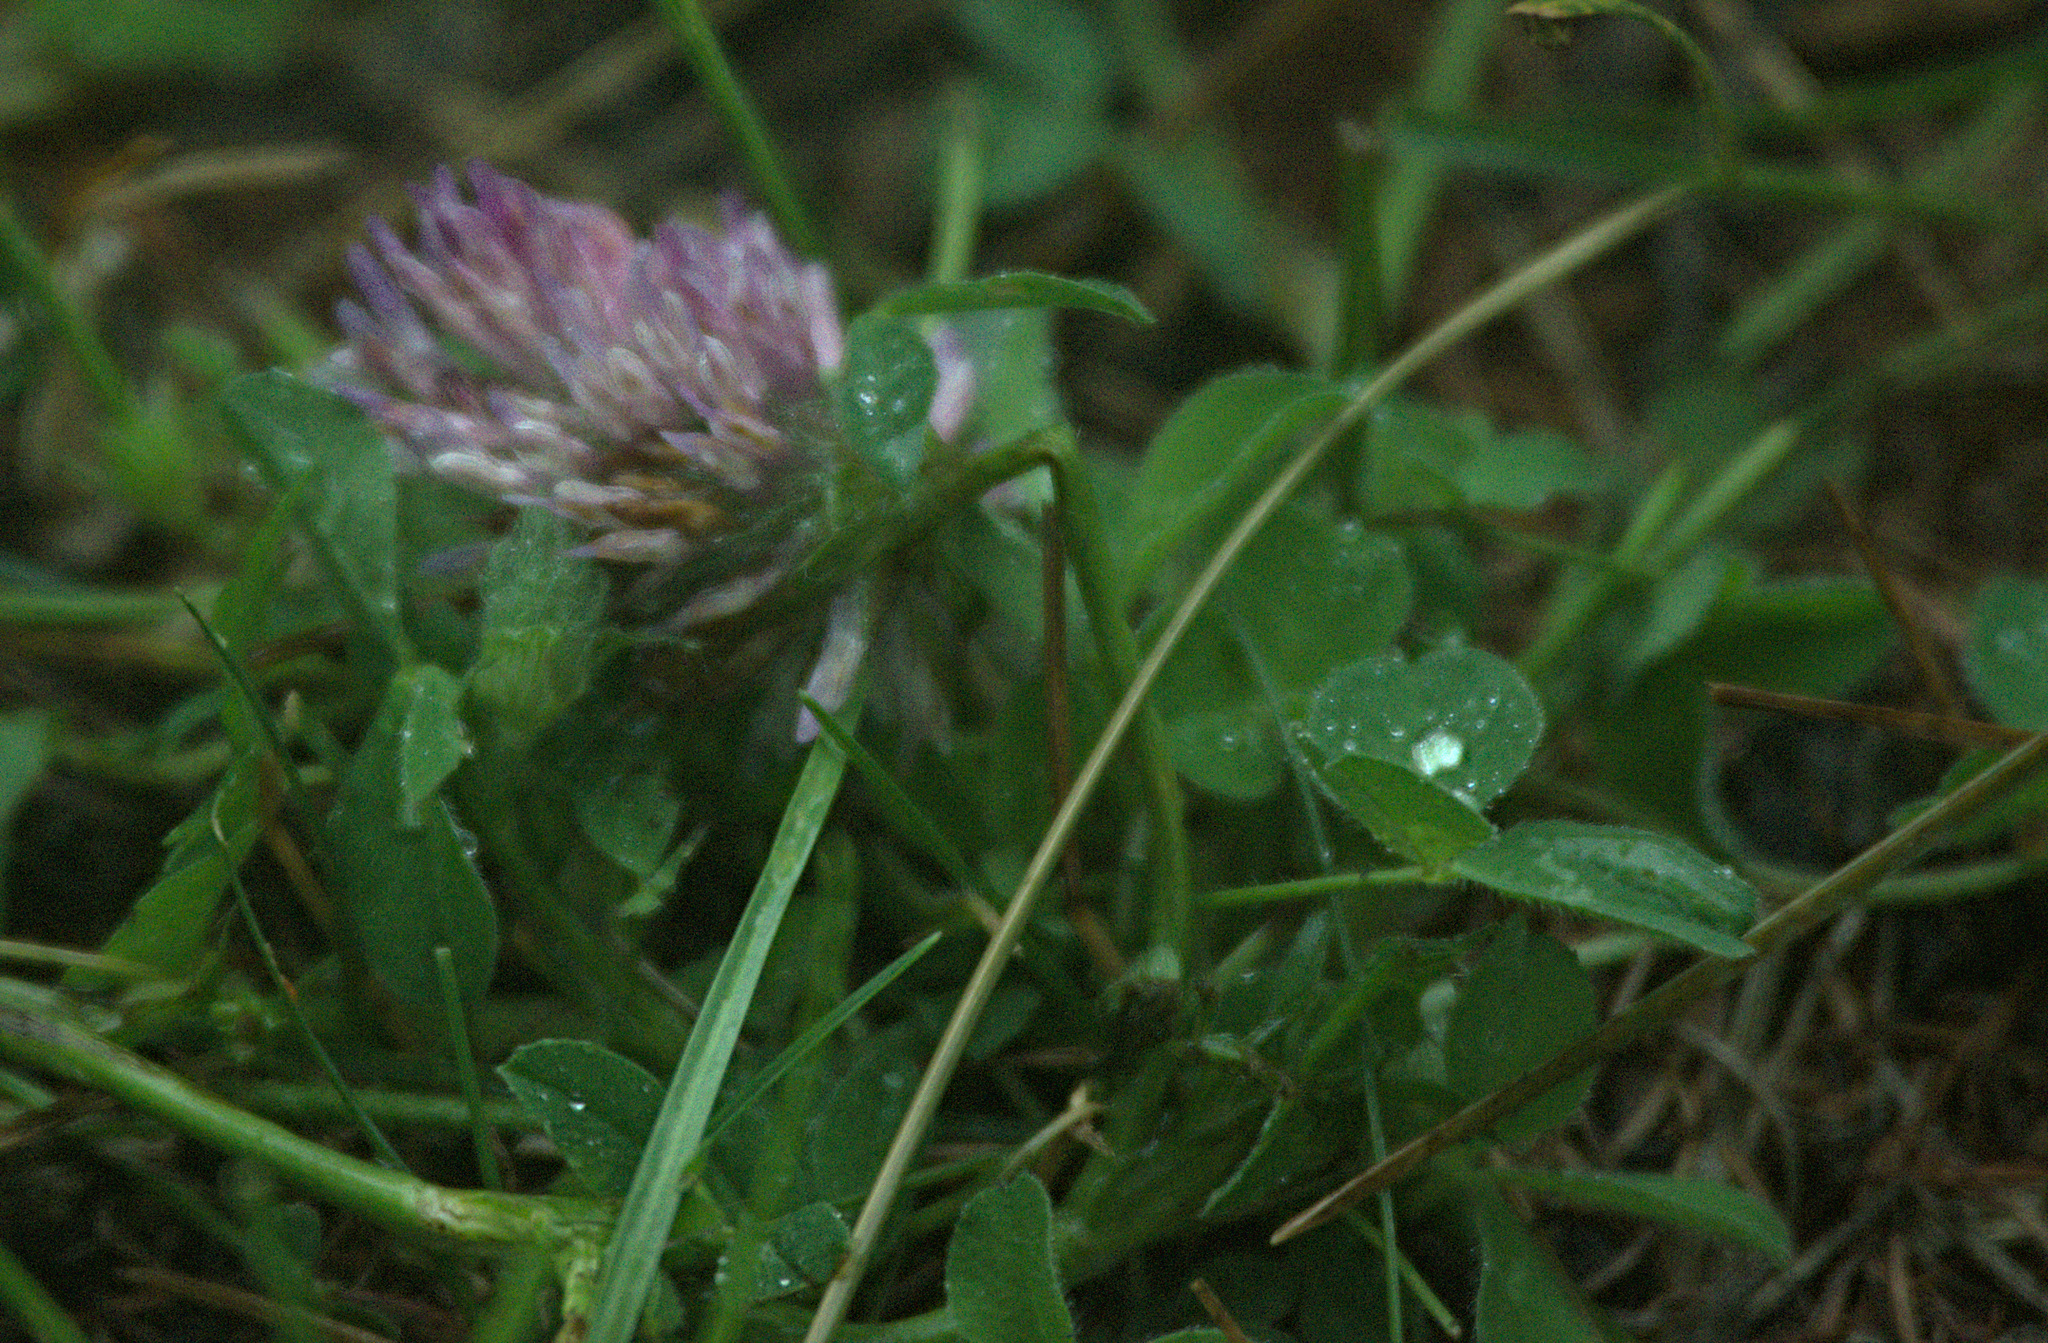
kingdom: Plantae
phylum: Tracheophyta
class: Magnoliopsida
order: Fabales
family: Fabaceae
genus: Trifolium
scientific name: Trifolium pratense
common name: Red clover
